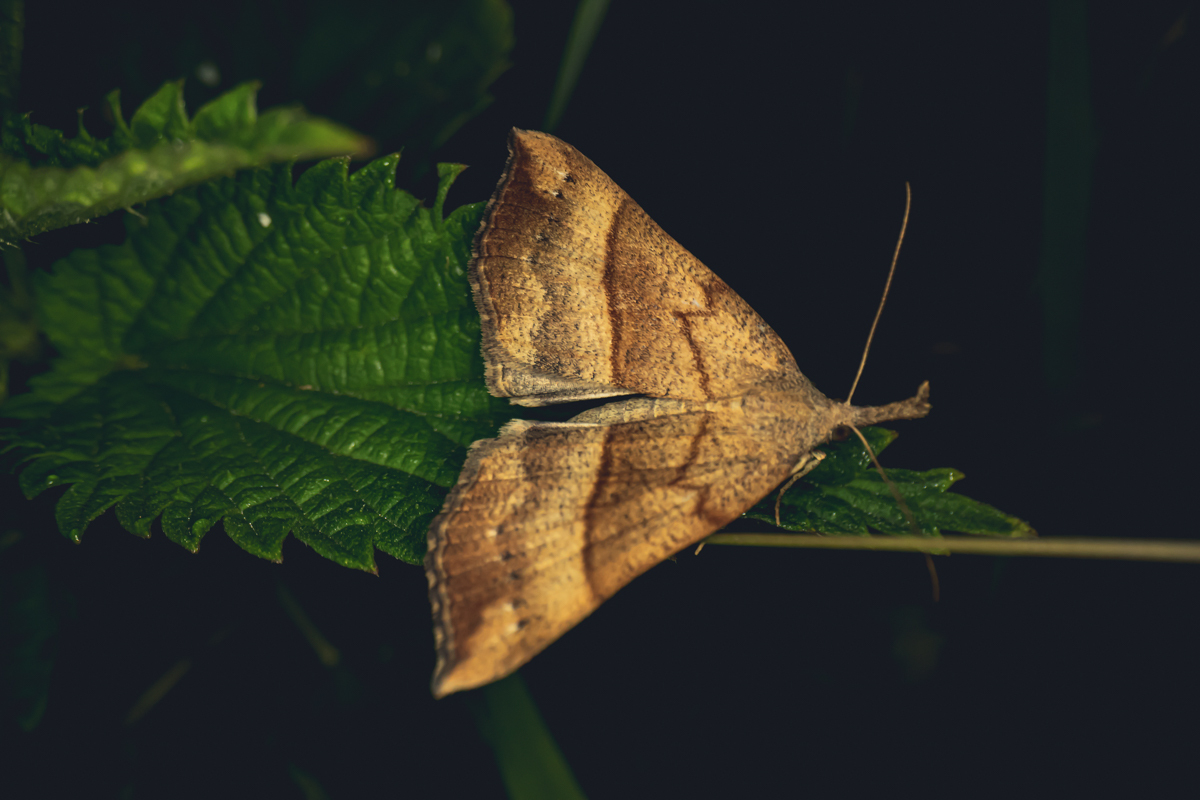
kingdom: Animalia
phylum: Arthropoda
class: Insecta
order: Lepidoptera
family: Erebidae
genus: Hypena
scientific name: Hypena proboscidalis
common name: Snout
